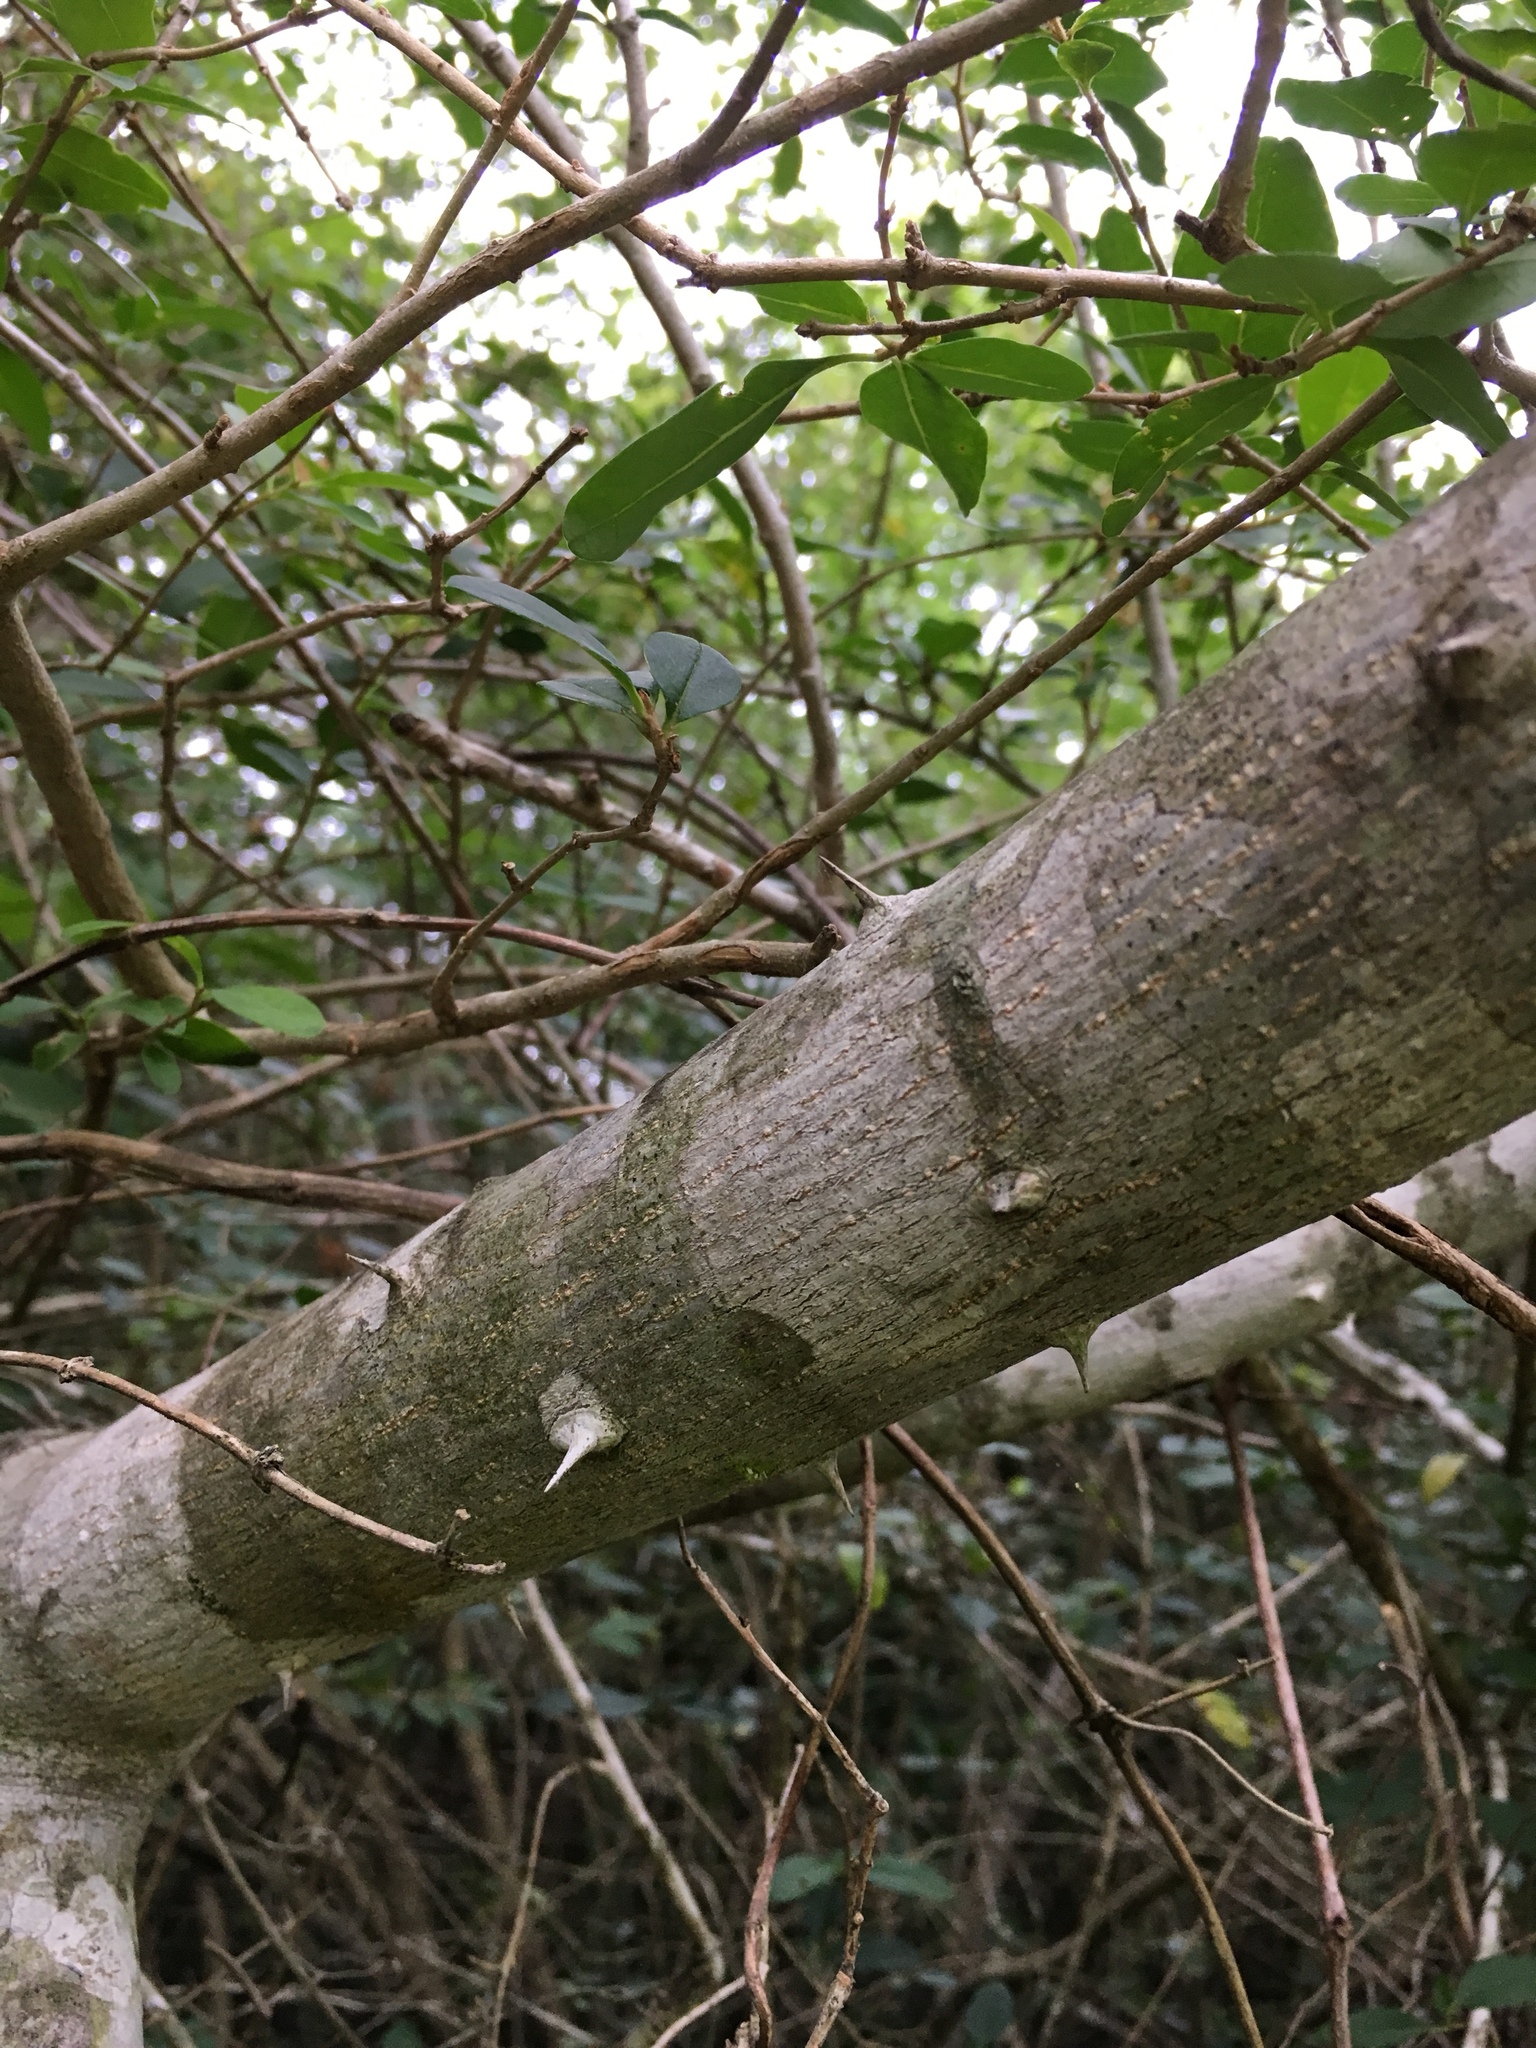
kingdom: Plantae
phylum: Tracheophyta
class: Magnoliopsida
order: Sapindales
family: Rutaceae
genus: Zanthoxylum
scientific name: Zanthoxylum clava-herculis
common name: Hercules'-club
